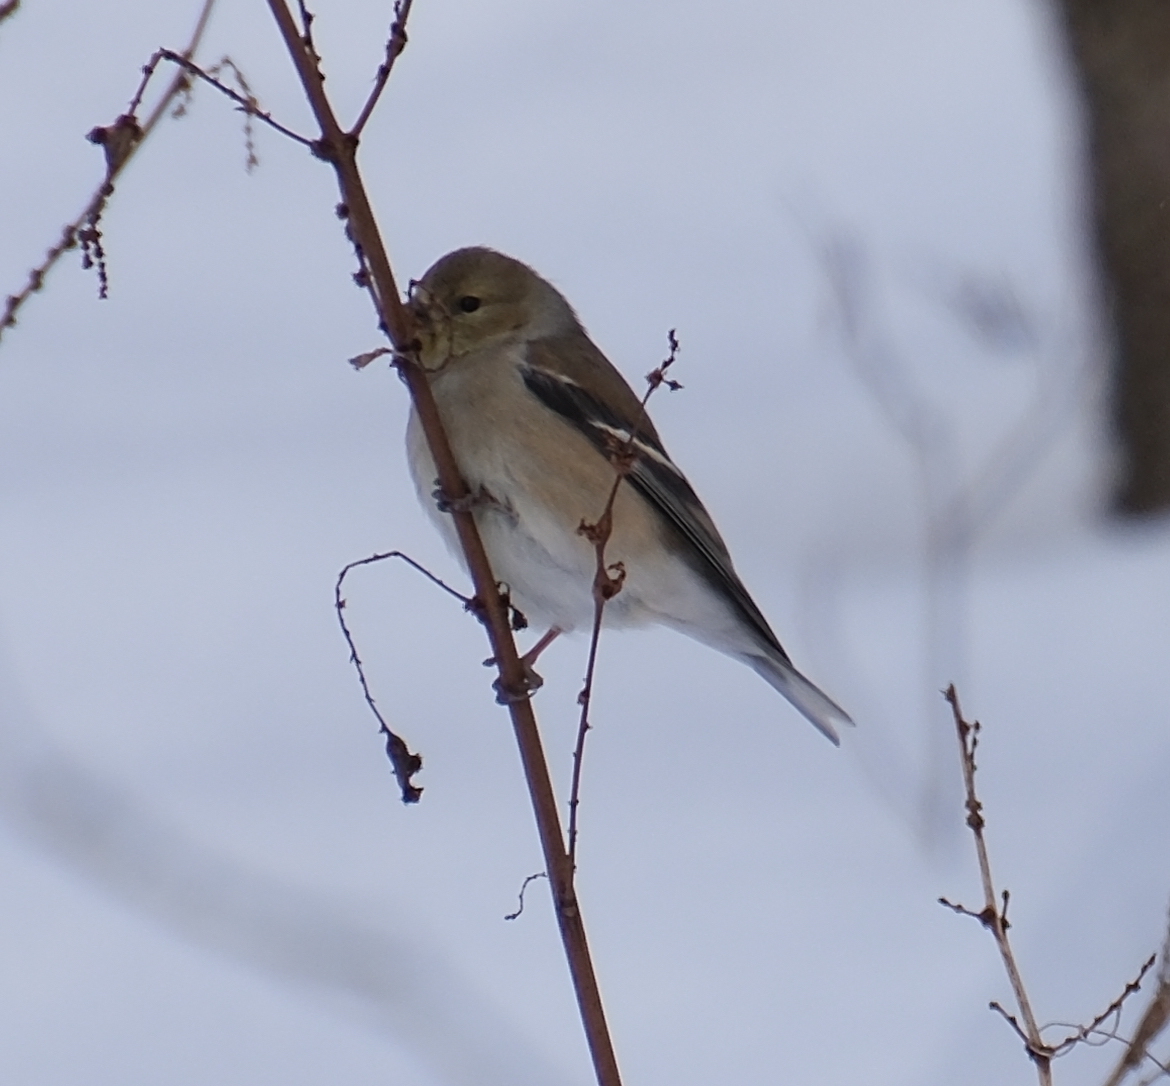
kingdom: Animalia
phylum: Chordata
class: Aves
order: Passeriformes
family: Fringillidae
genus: Spinus
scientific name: Spinus tristis
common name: American goldfinch
